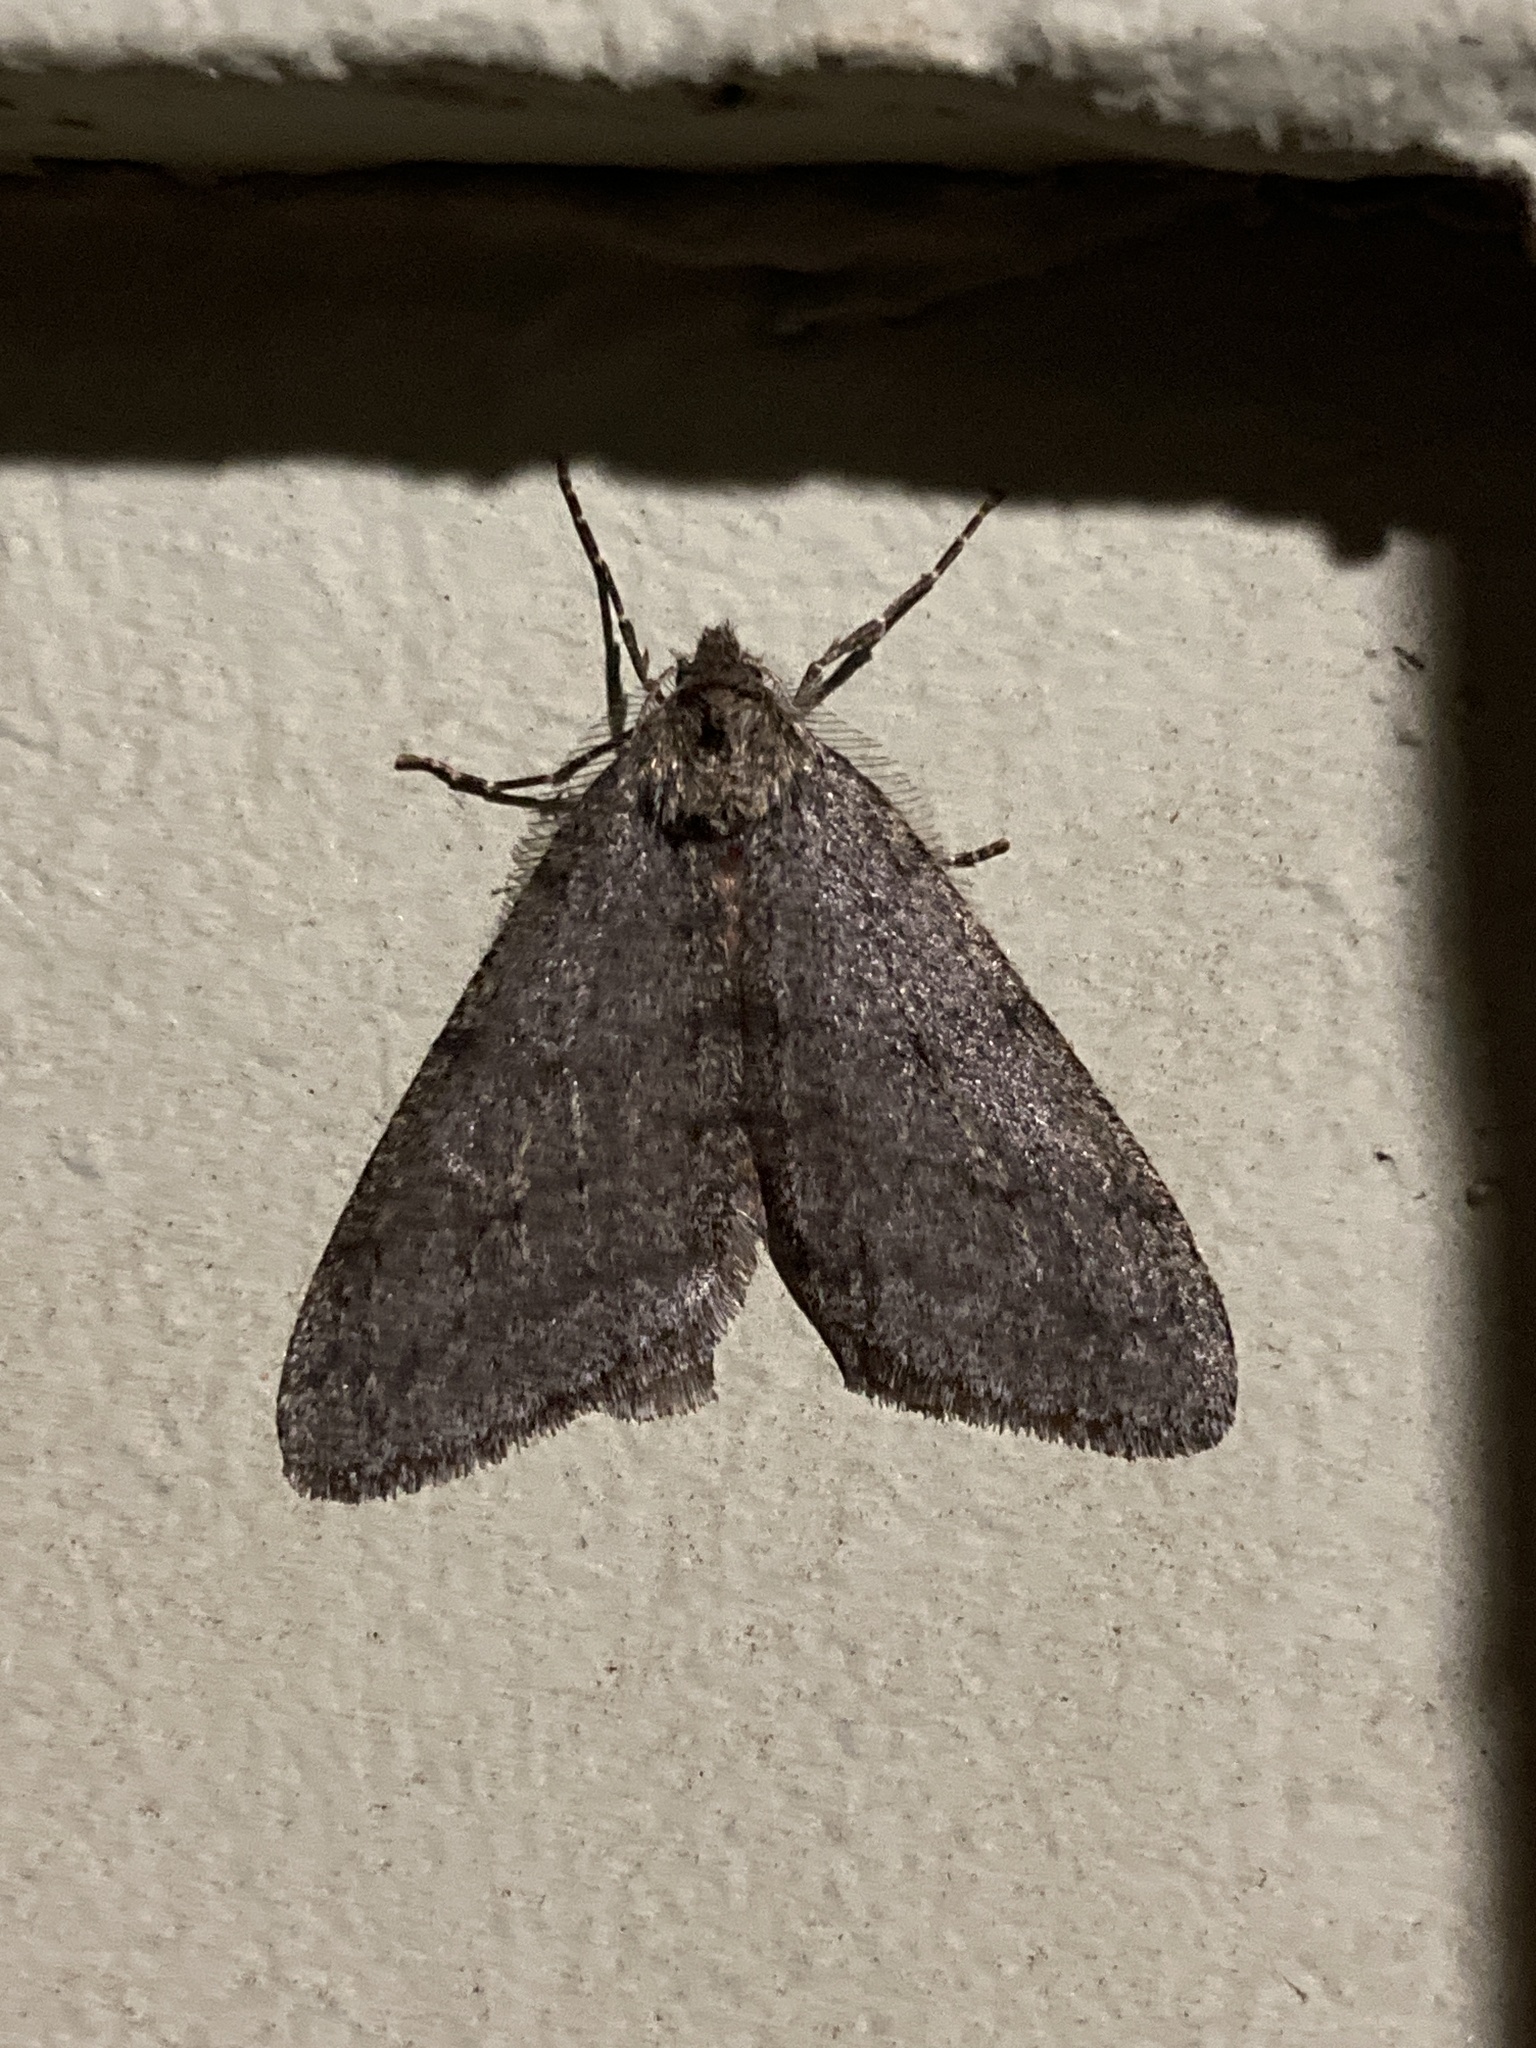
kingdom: Animalia
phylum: Arthropoda
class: Insecta
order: Lepidoptera
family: Geometridae
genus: Phigalia
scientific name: Phigalia plumogeraria
